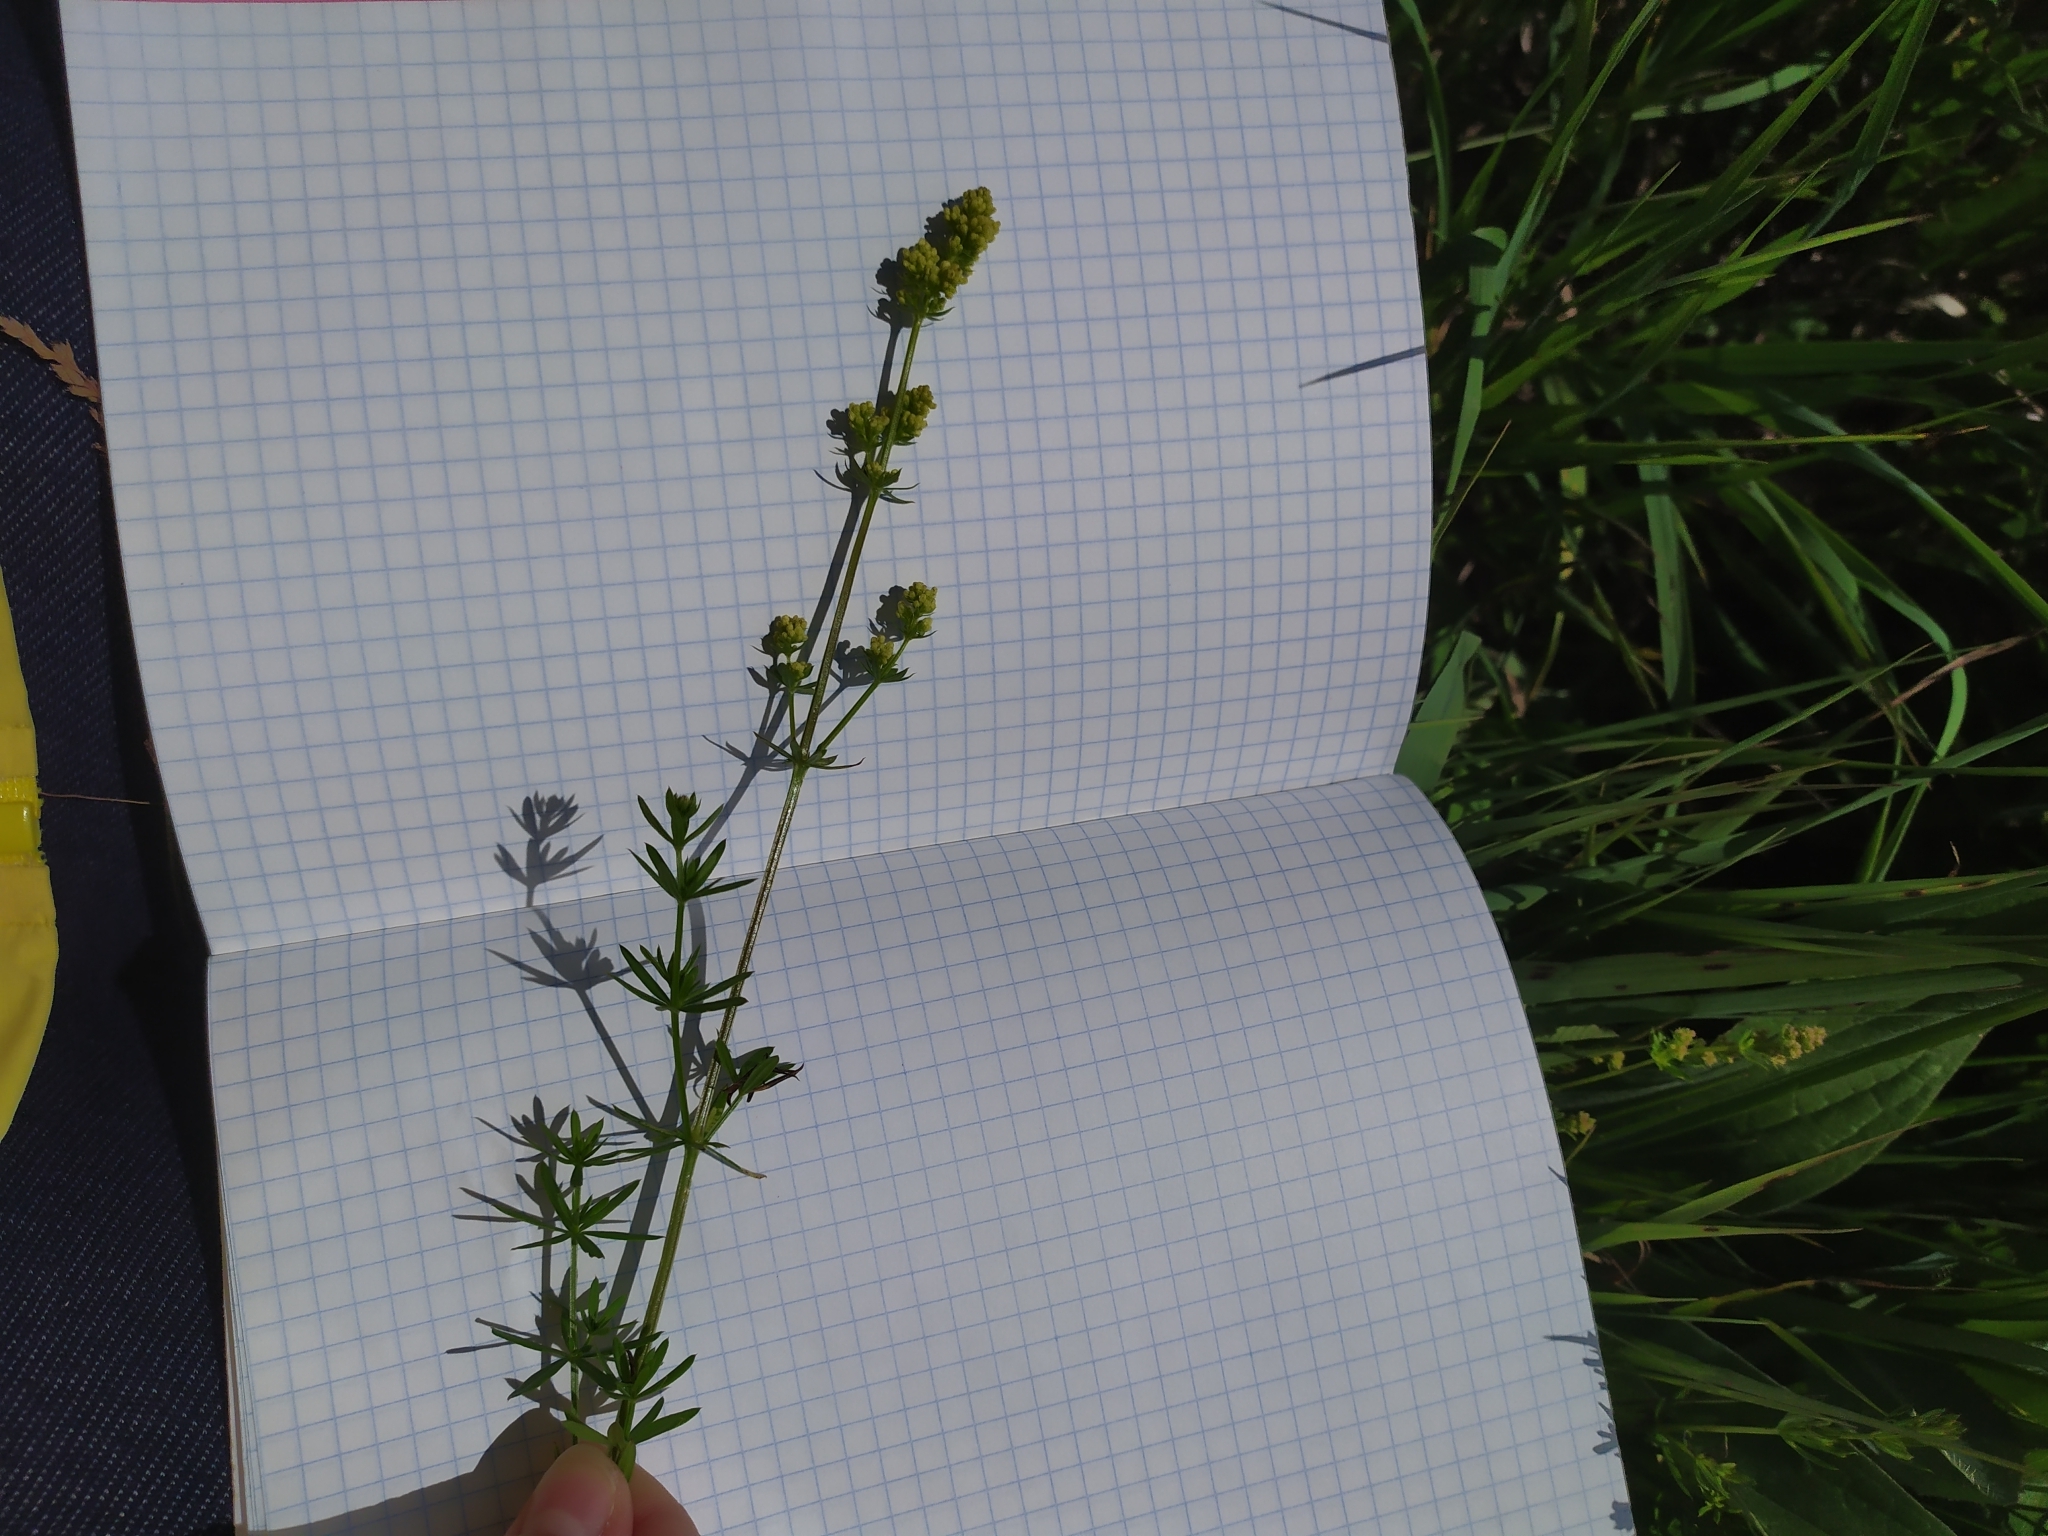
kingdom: Plantae
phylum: Tracheophyta
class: Magnoliopsida
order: Gentianales
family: Rubiaceae
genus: Galium
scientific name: Galium verum
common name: Lady's bedstraw
